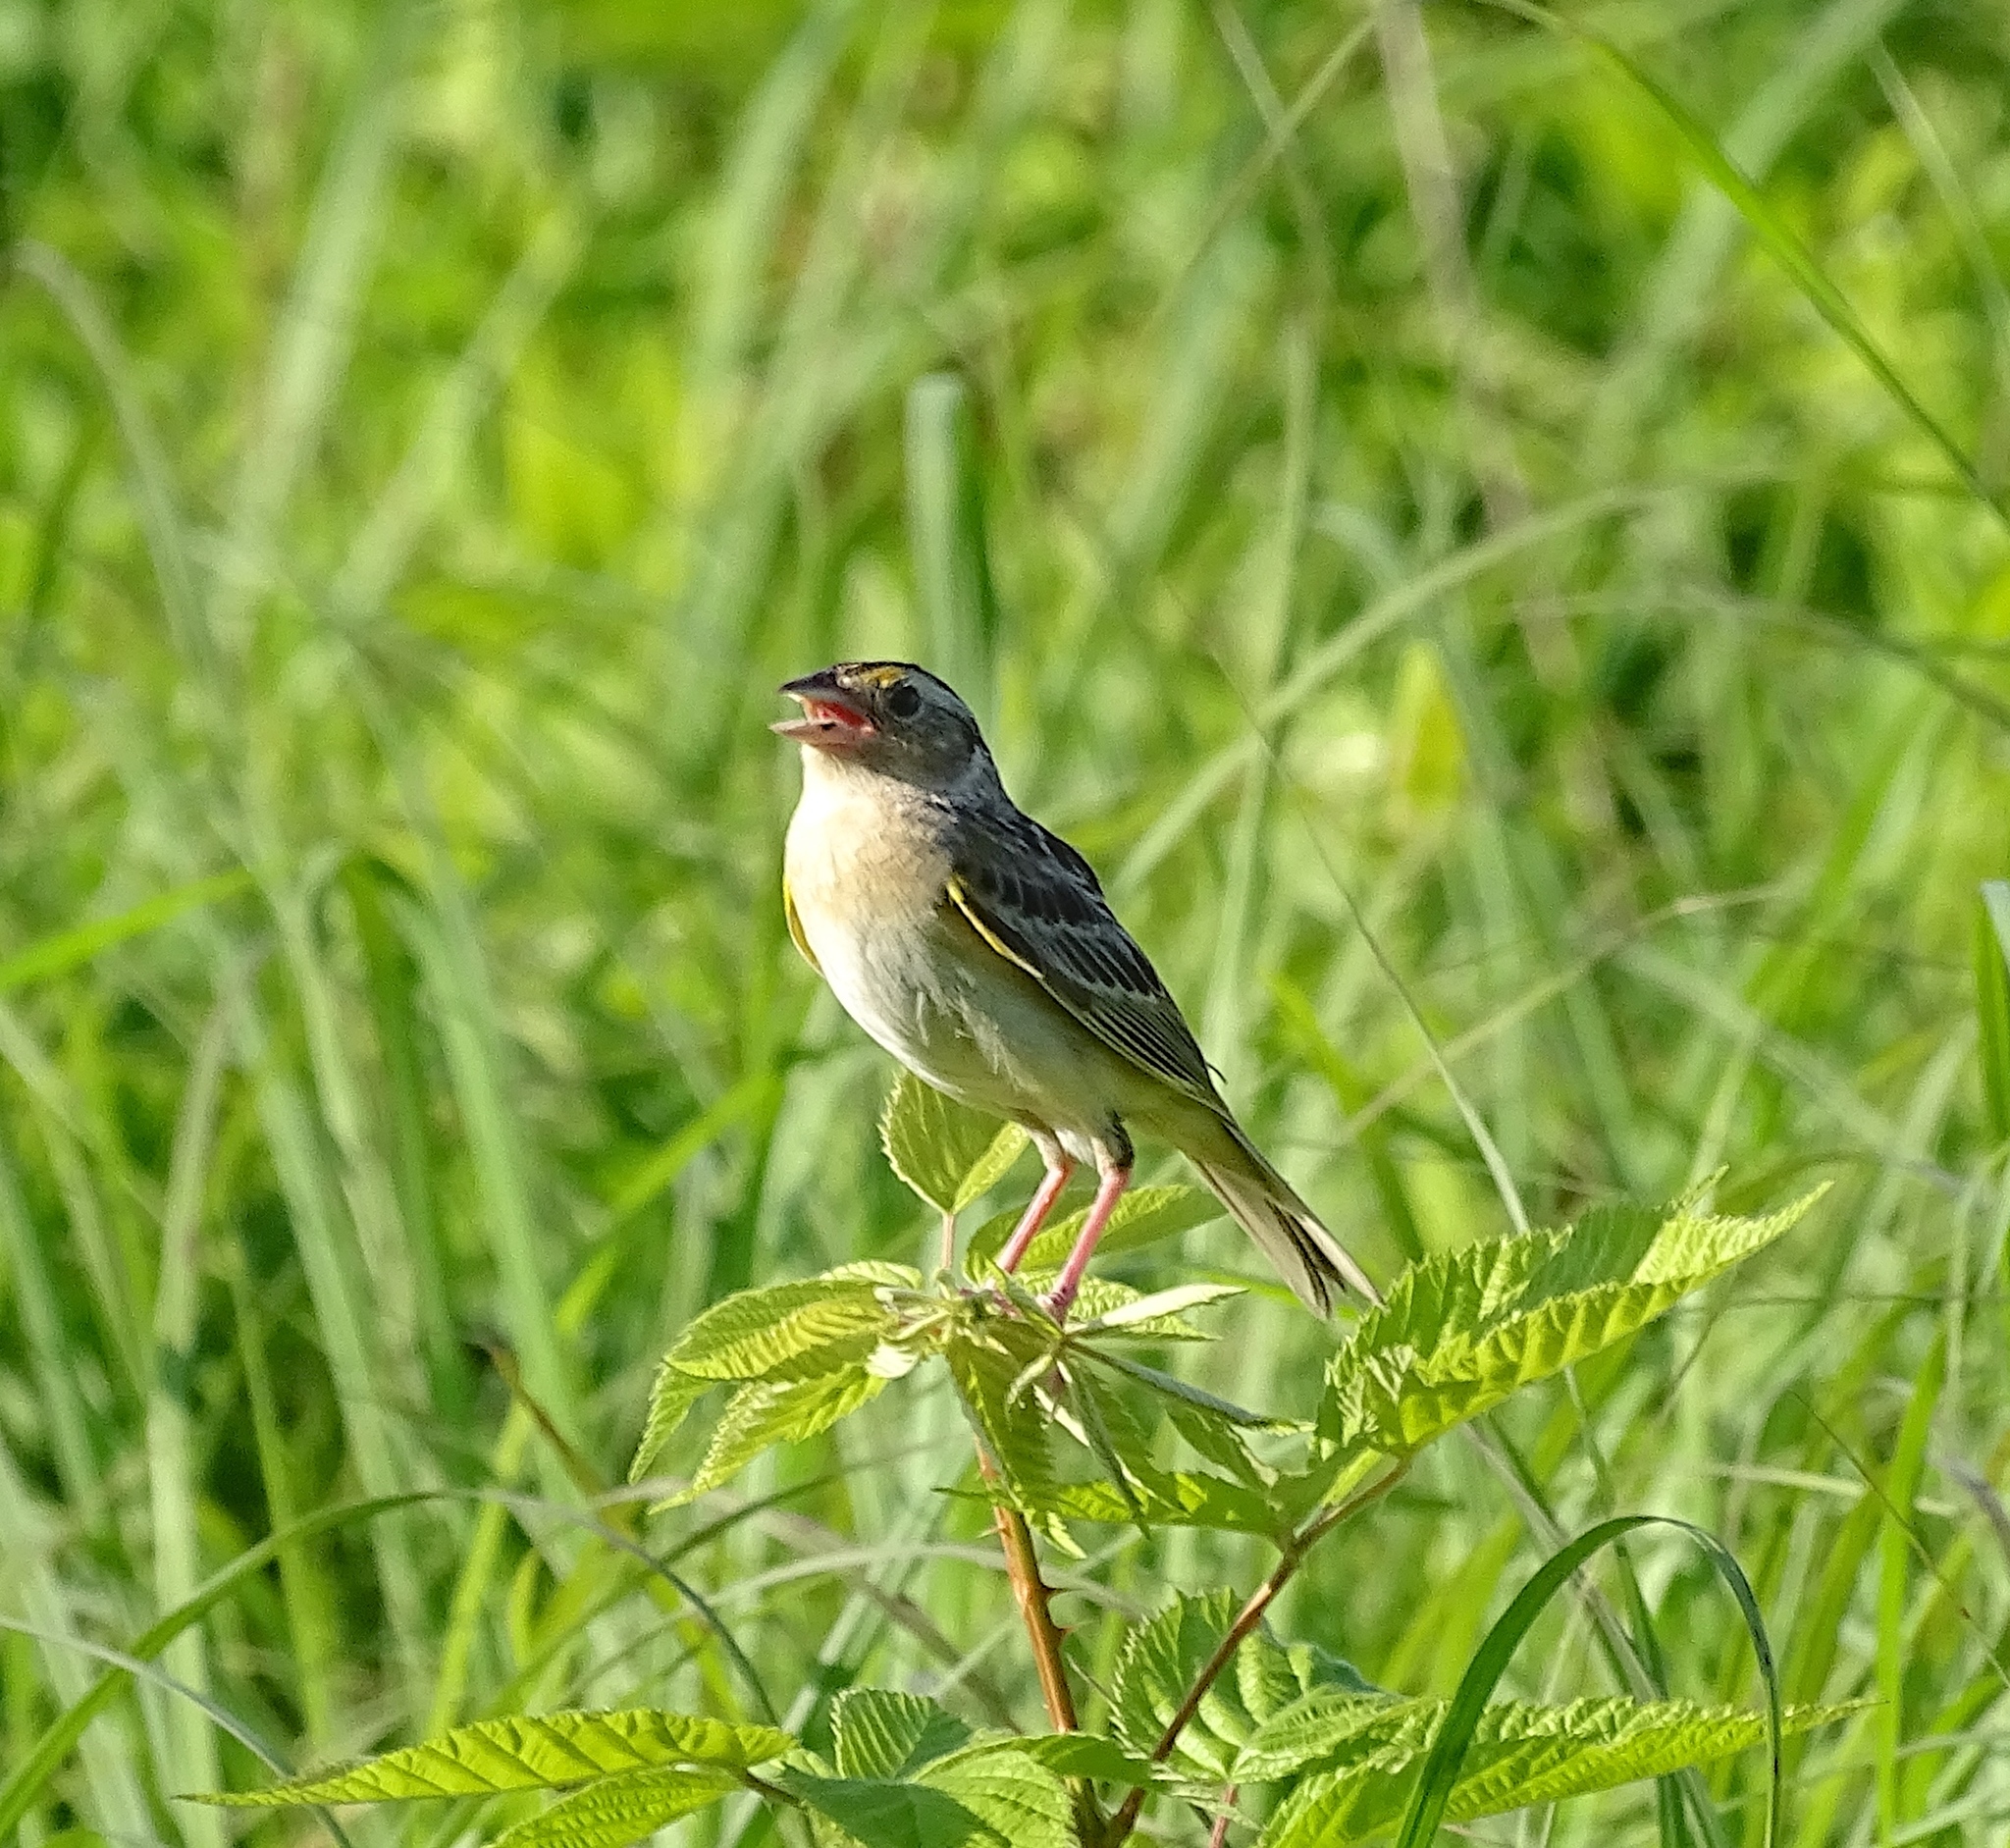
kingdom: Animalia
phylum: Chordata
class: Aves
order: Passeriformes
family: Passerellidae
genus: Ammodramus
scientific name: Ammodramus savannarum
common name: Grasshopper sparrow
